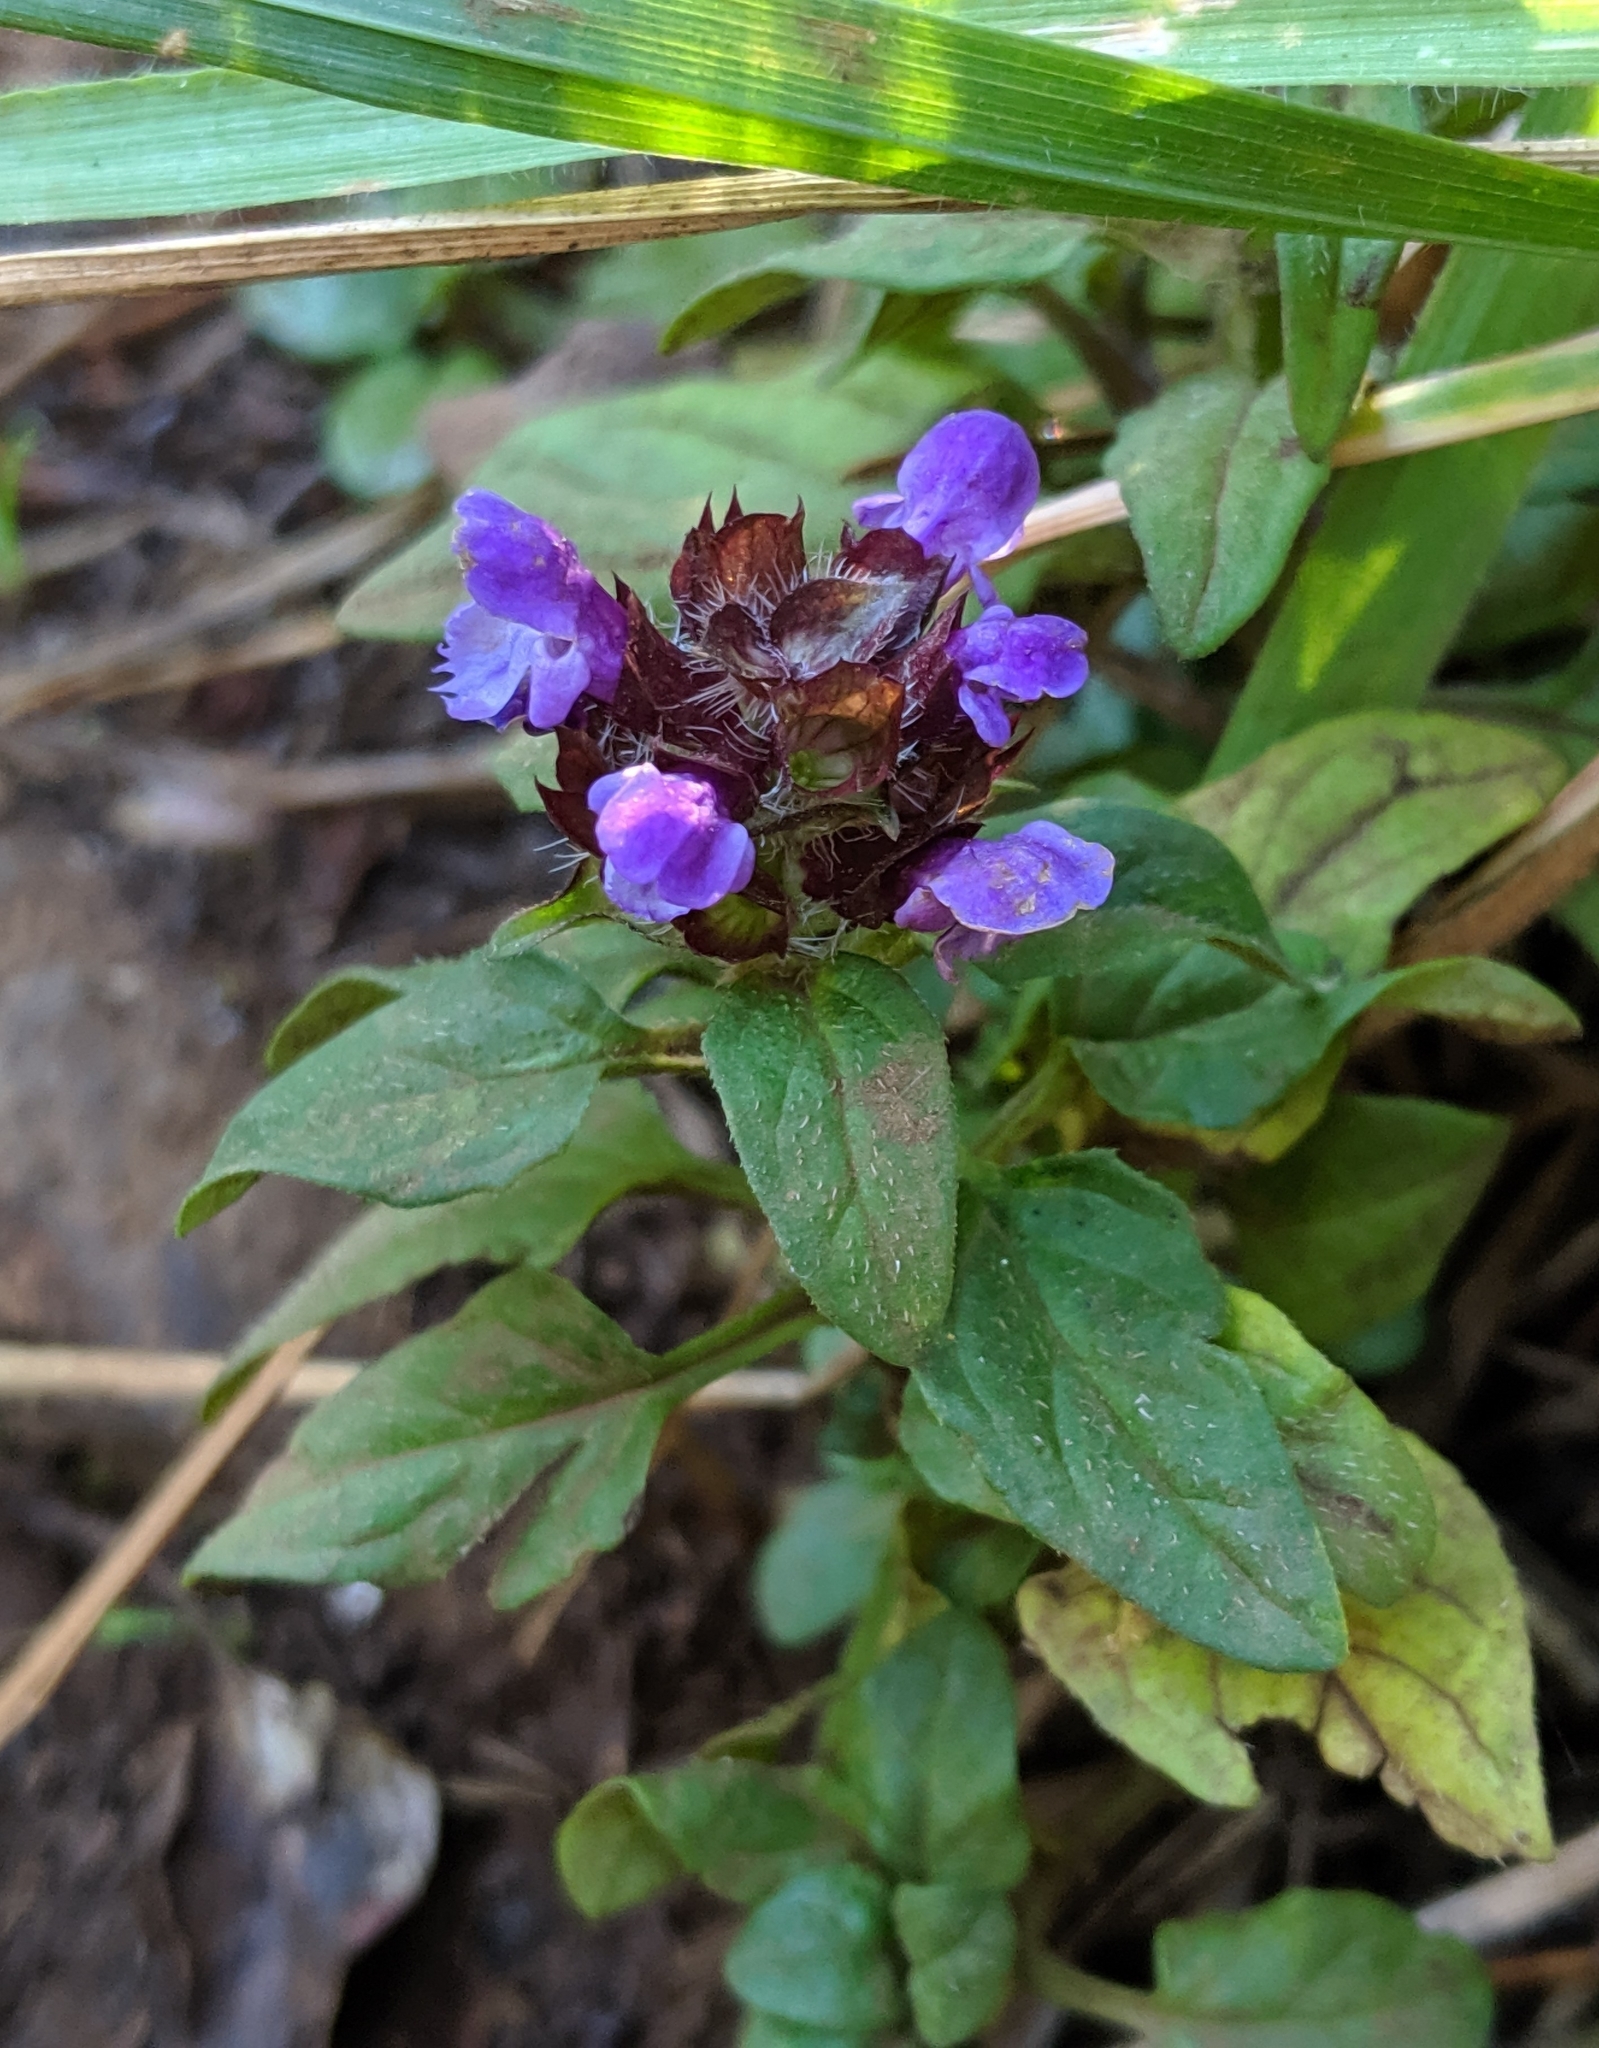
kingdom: Plantae
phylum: Tracheophyta
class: Magnoliopsida
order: Lamiales
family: Lamiaceae
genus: Prunella
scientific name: Prunella vulgaris
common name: Heal-all
